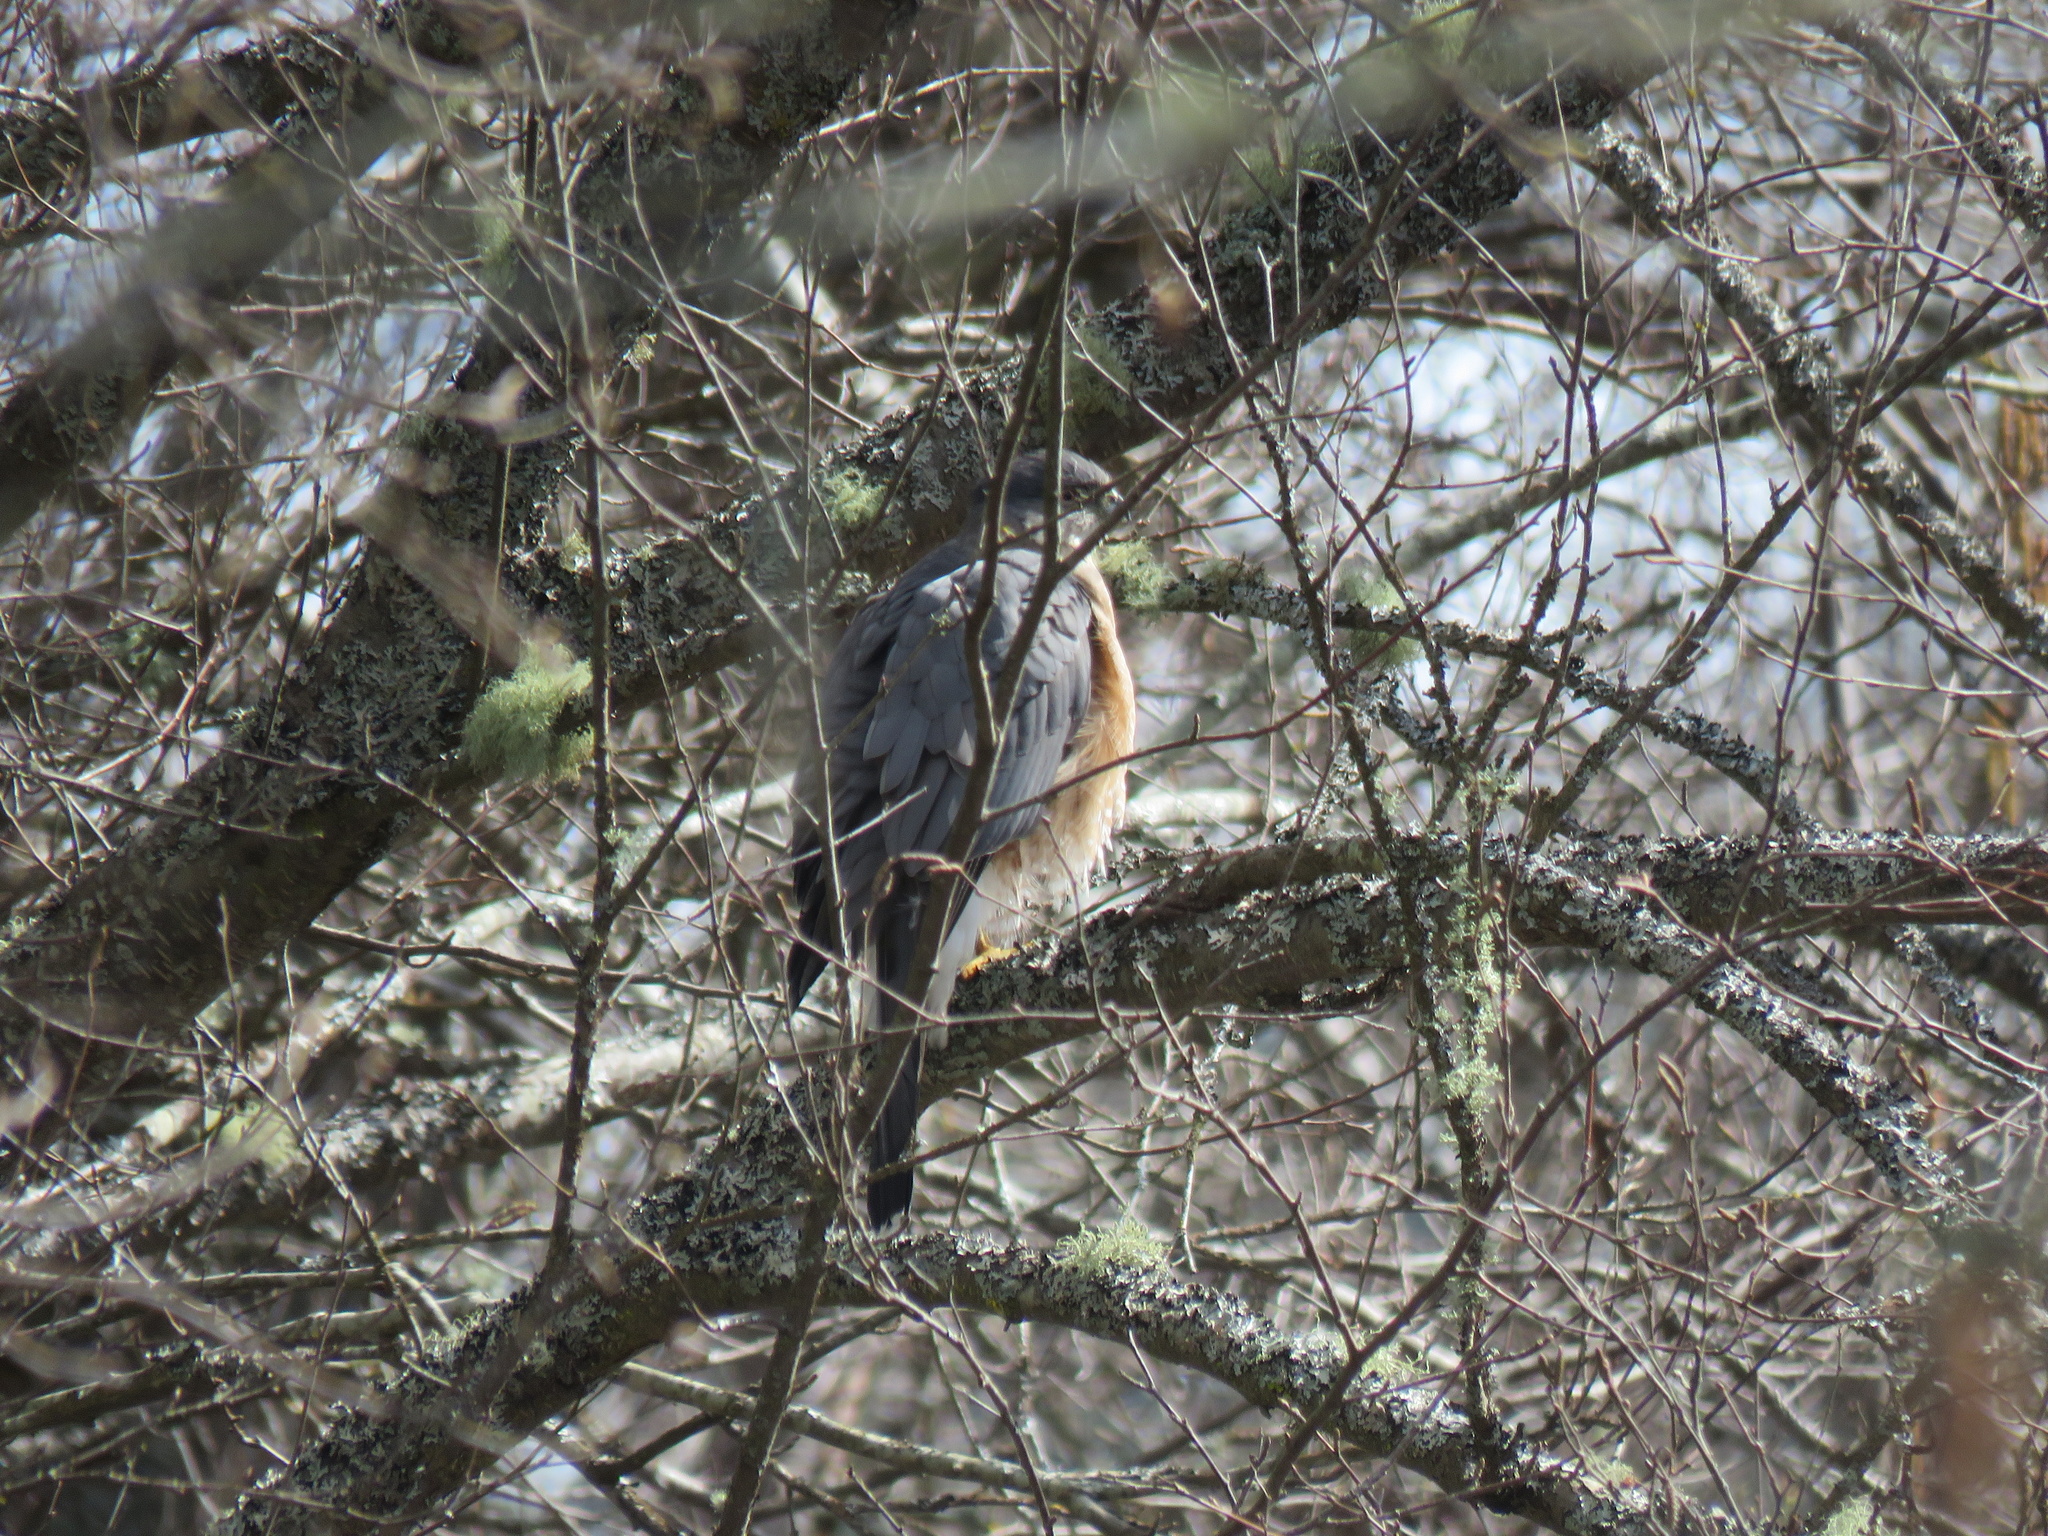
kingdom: Animalia
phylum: Chordata
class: Aves
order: Accipitriformes
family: Accipitridae
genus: Accipiter
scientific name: Accipiter cooperii
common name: Cooper's hawk
